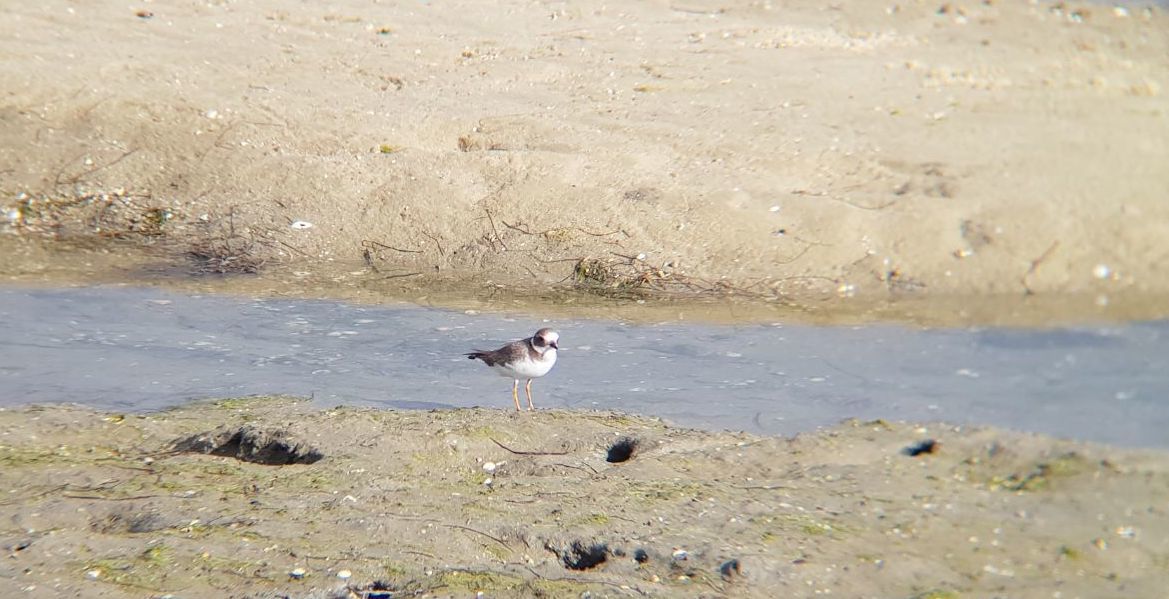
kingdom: Animalia
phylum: Chordata
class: Aves
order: Charadriiformes
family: Charadriidae
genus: Charadrius
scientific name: Charadrius hiaticula
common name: Common ringed plover
